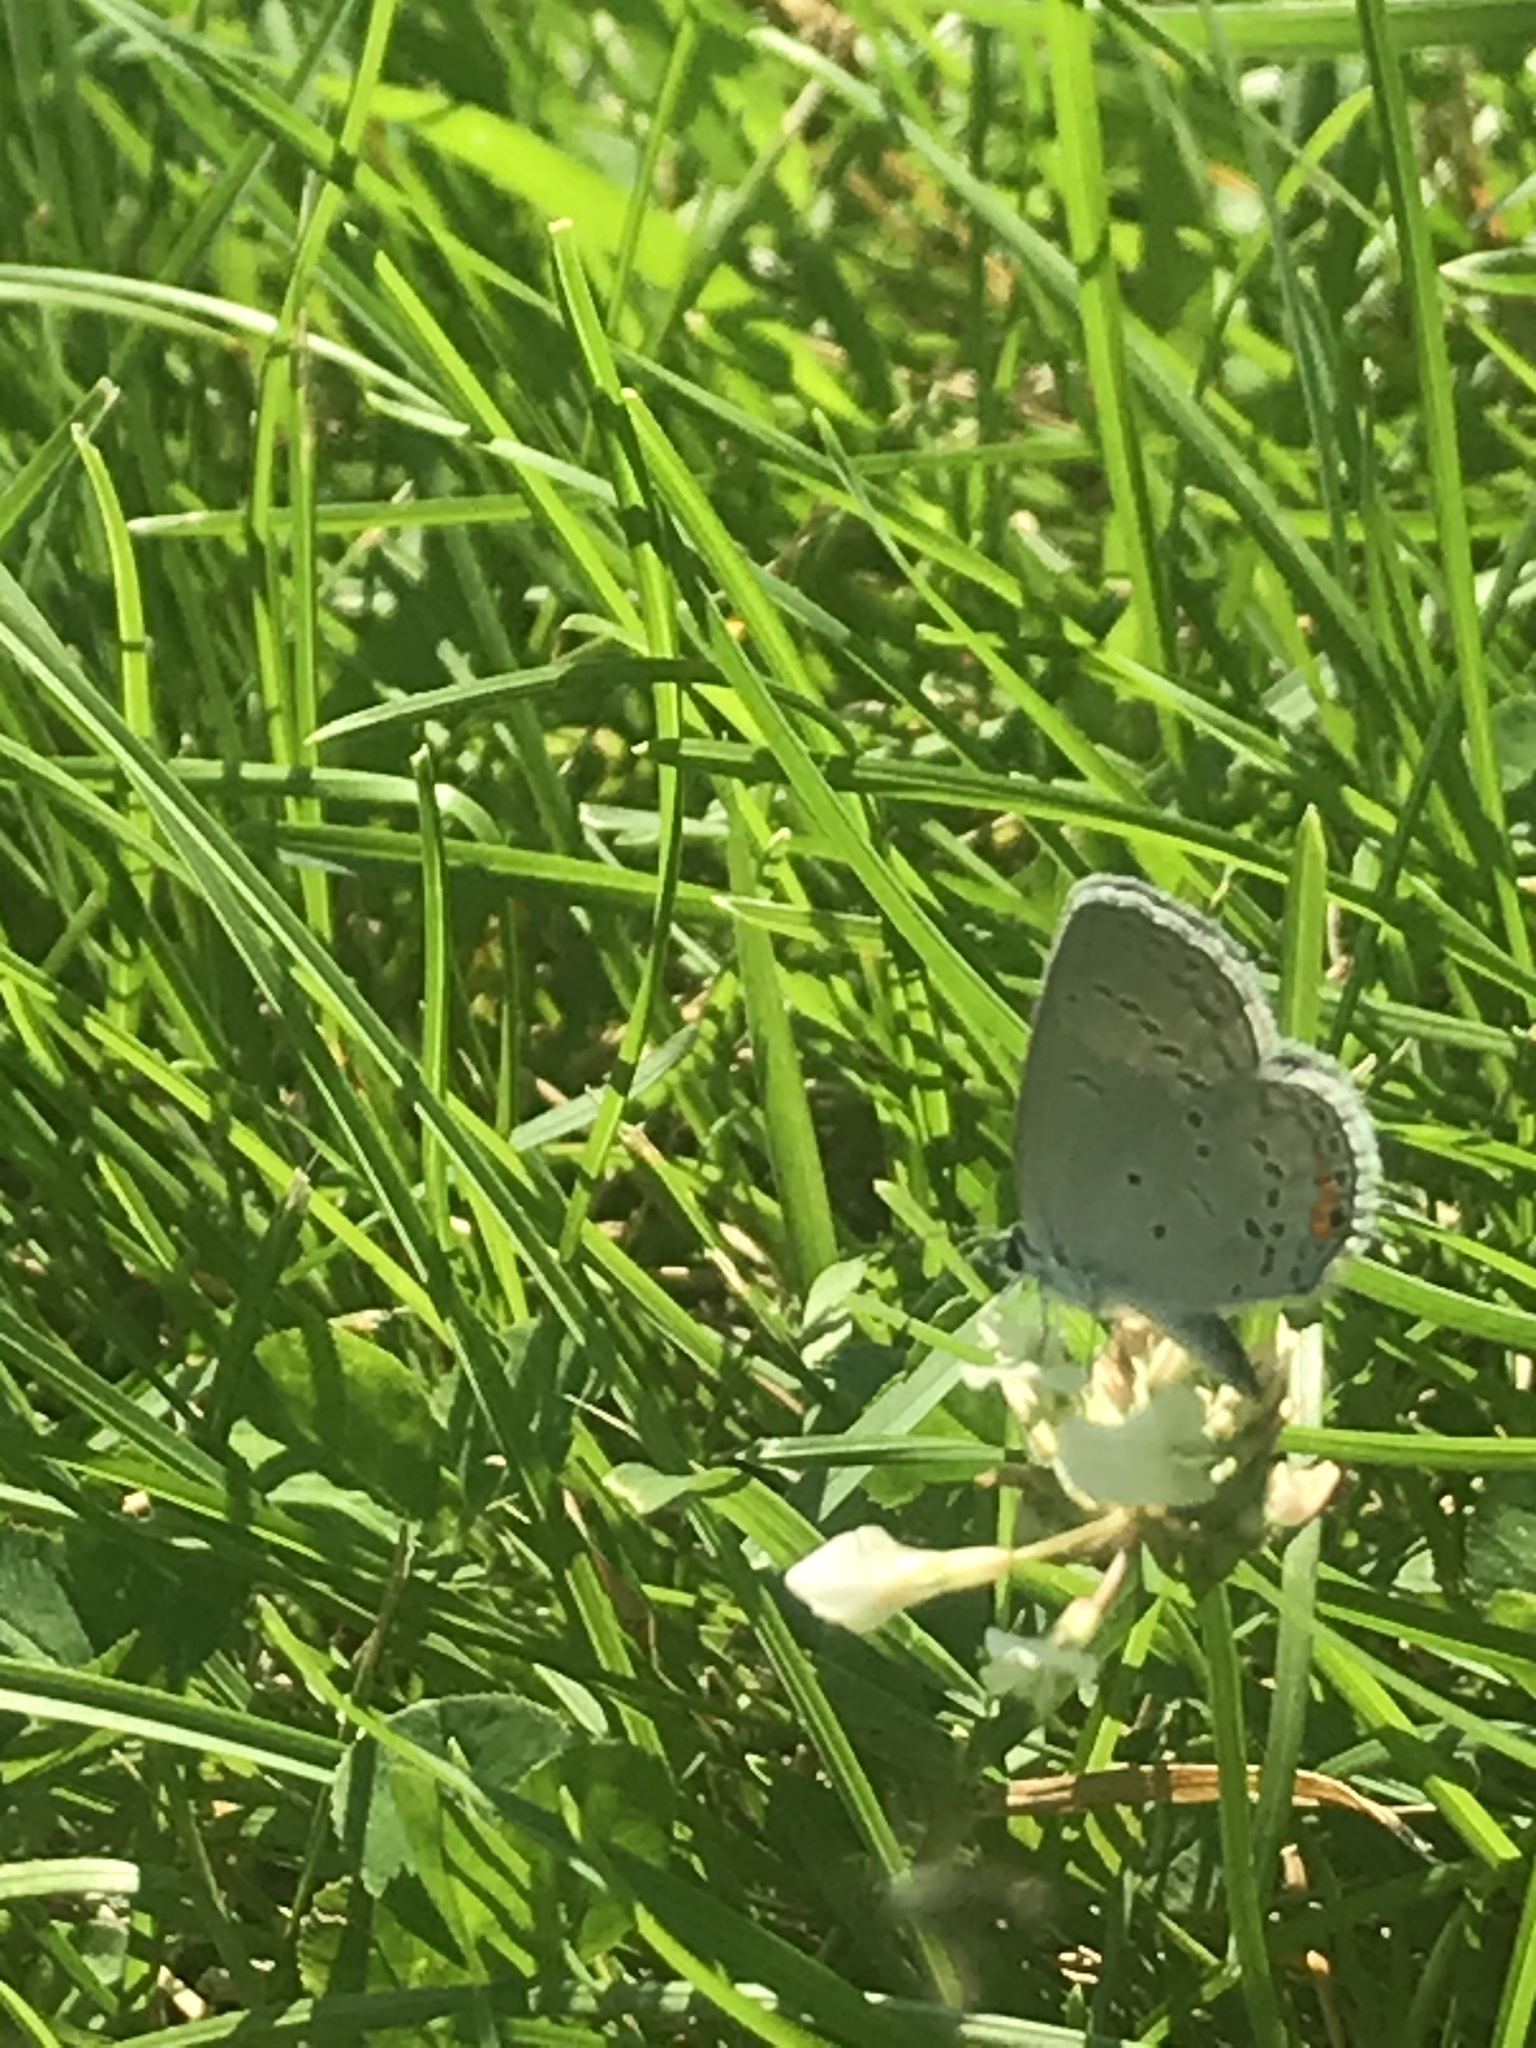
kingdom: Animalia
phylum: Arthropoda
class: Insecta
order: Lepidoptera
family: Lycaenidae
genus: Elkalyce
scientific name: Elkalyce comyntas
